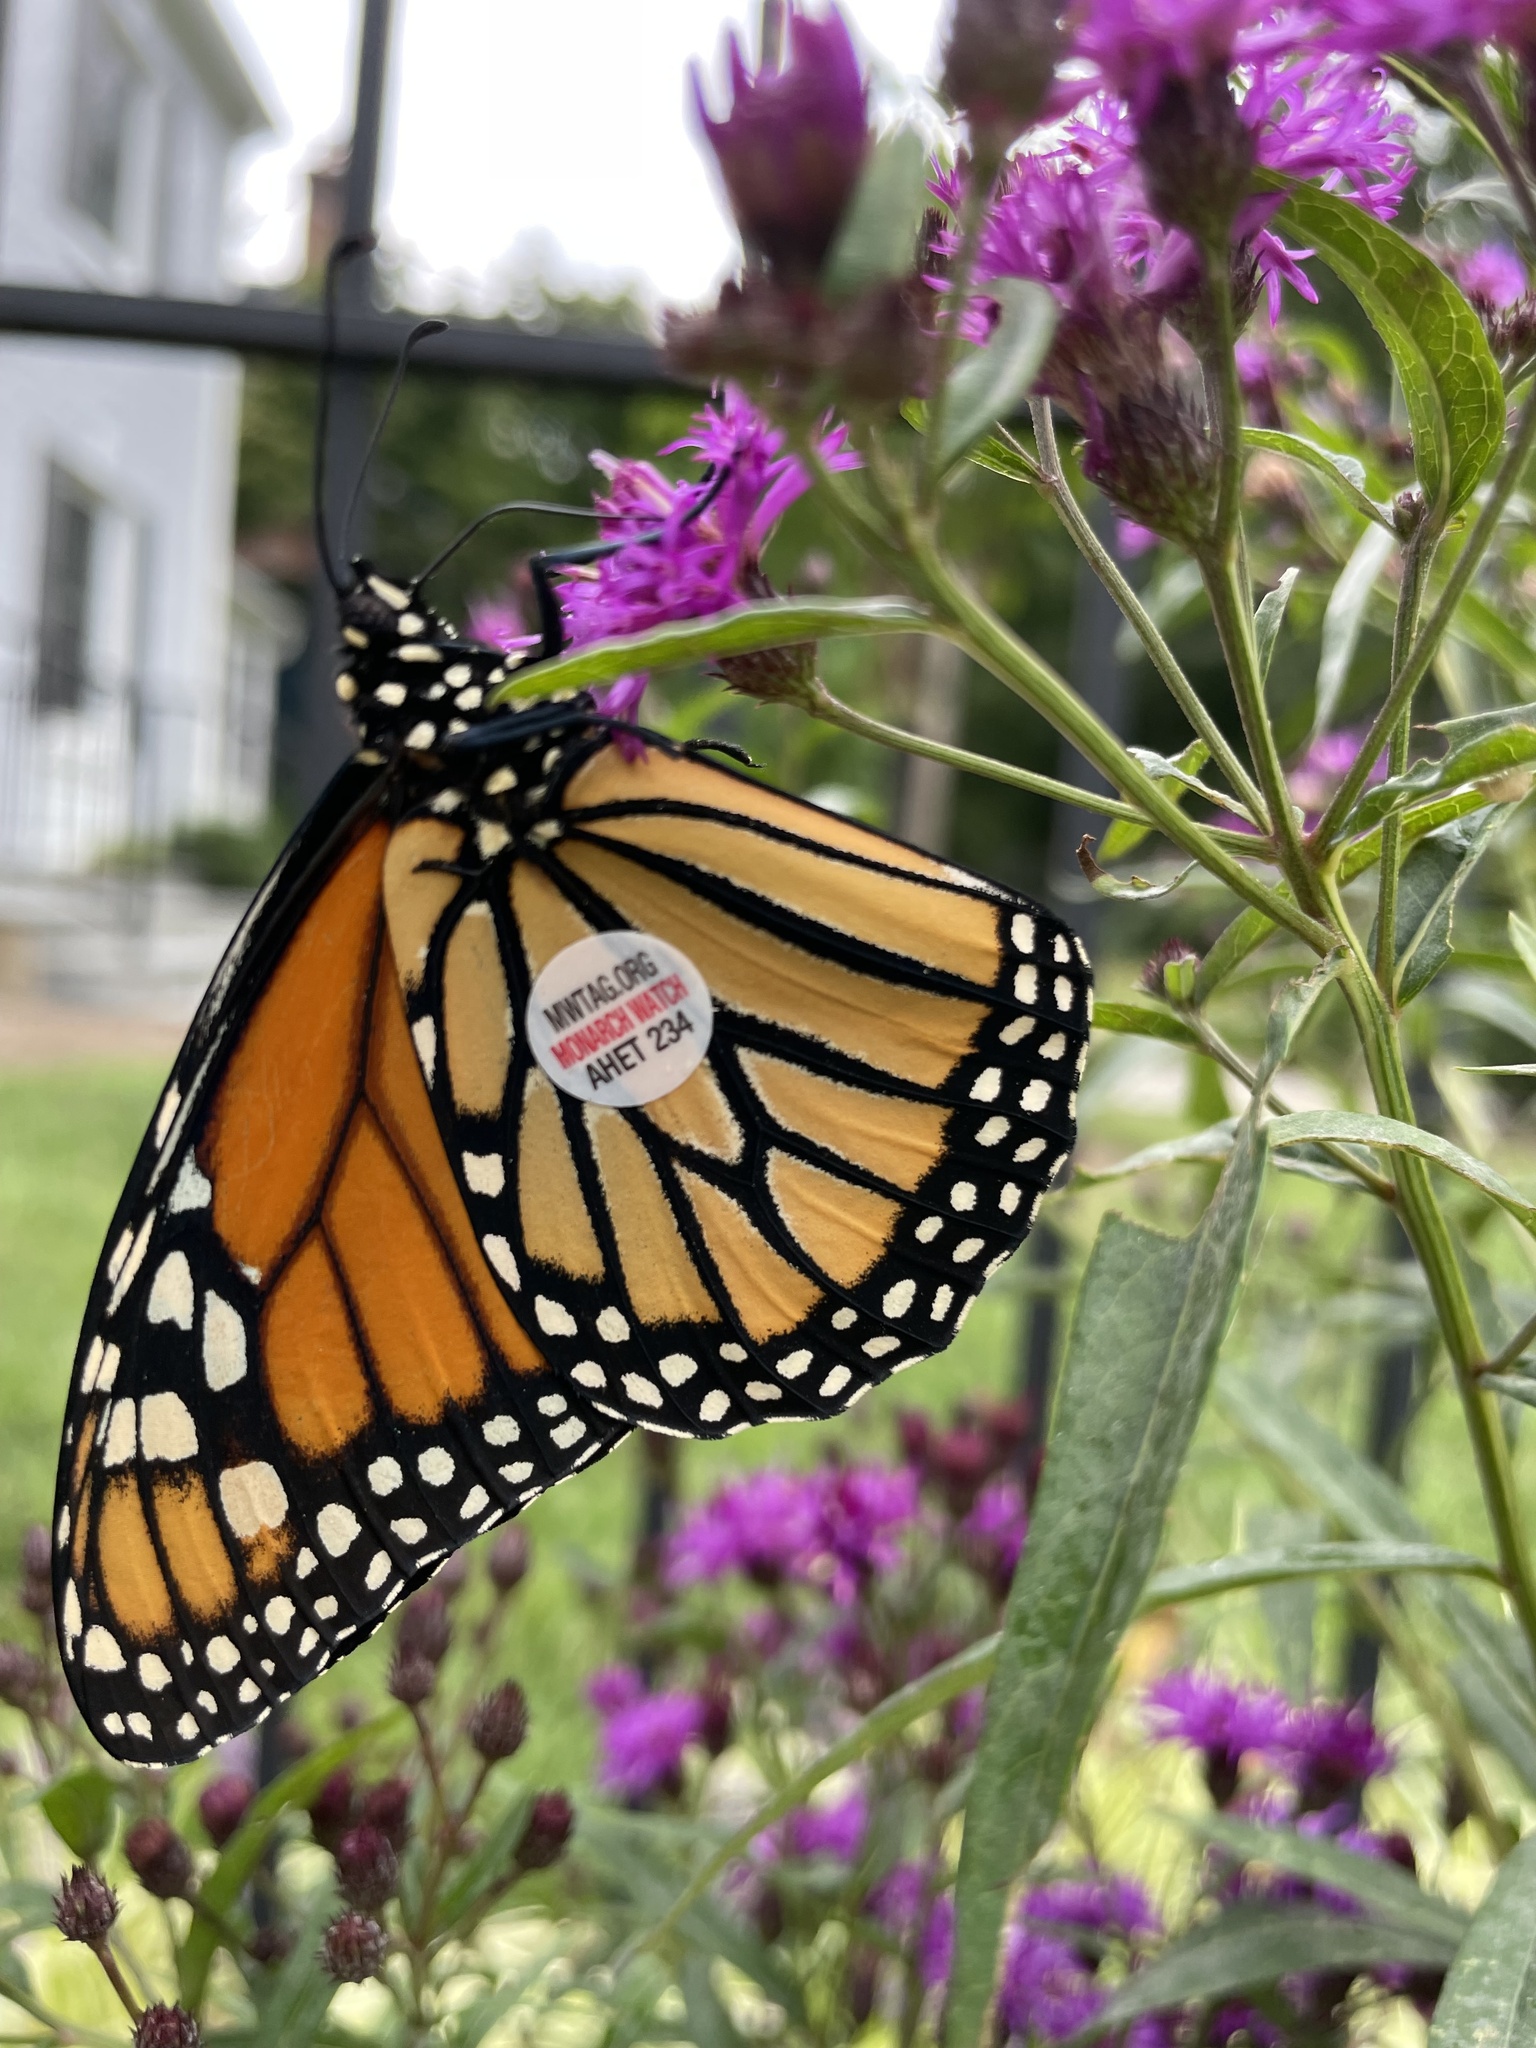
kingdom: Animalia
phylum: Arthropoda
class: Insecta
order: Lepidoptera
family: Nymphalidae
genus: Danaus
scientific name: Danaus plexippus
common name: Monarch
